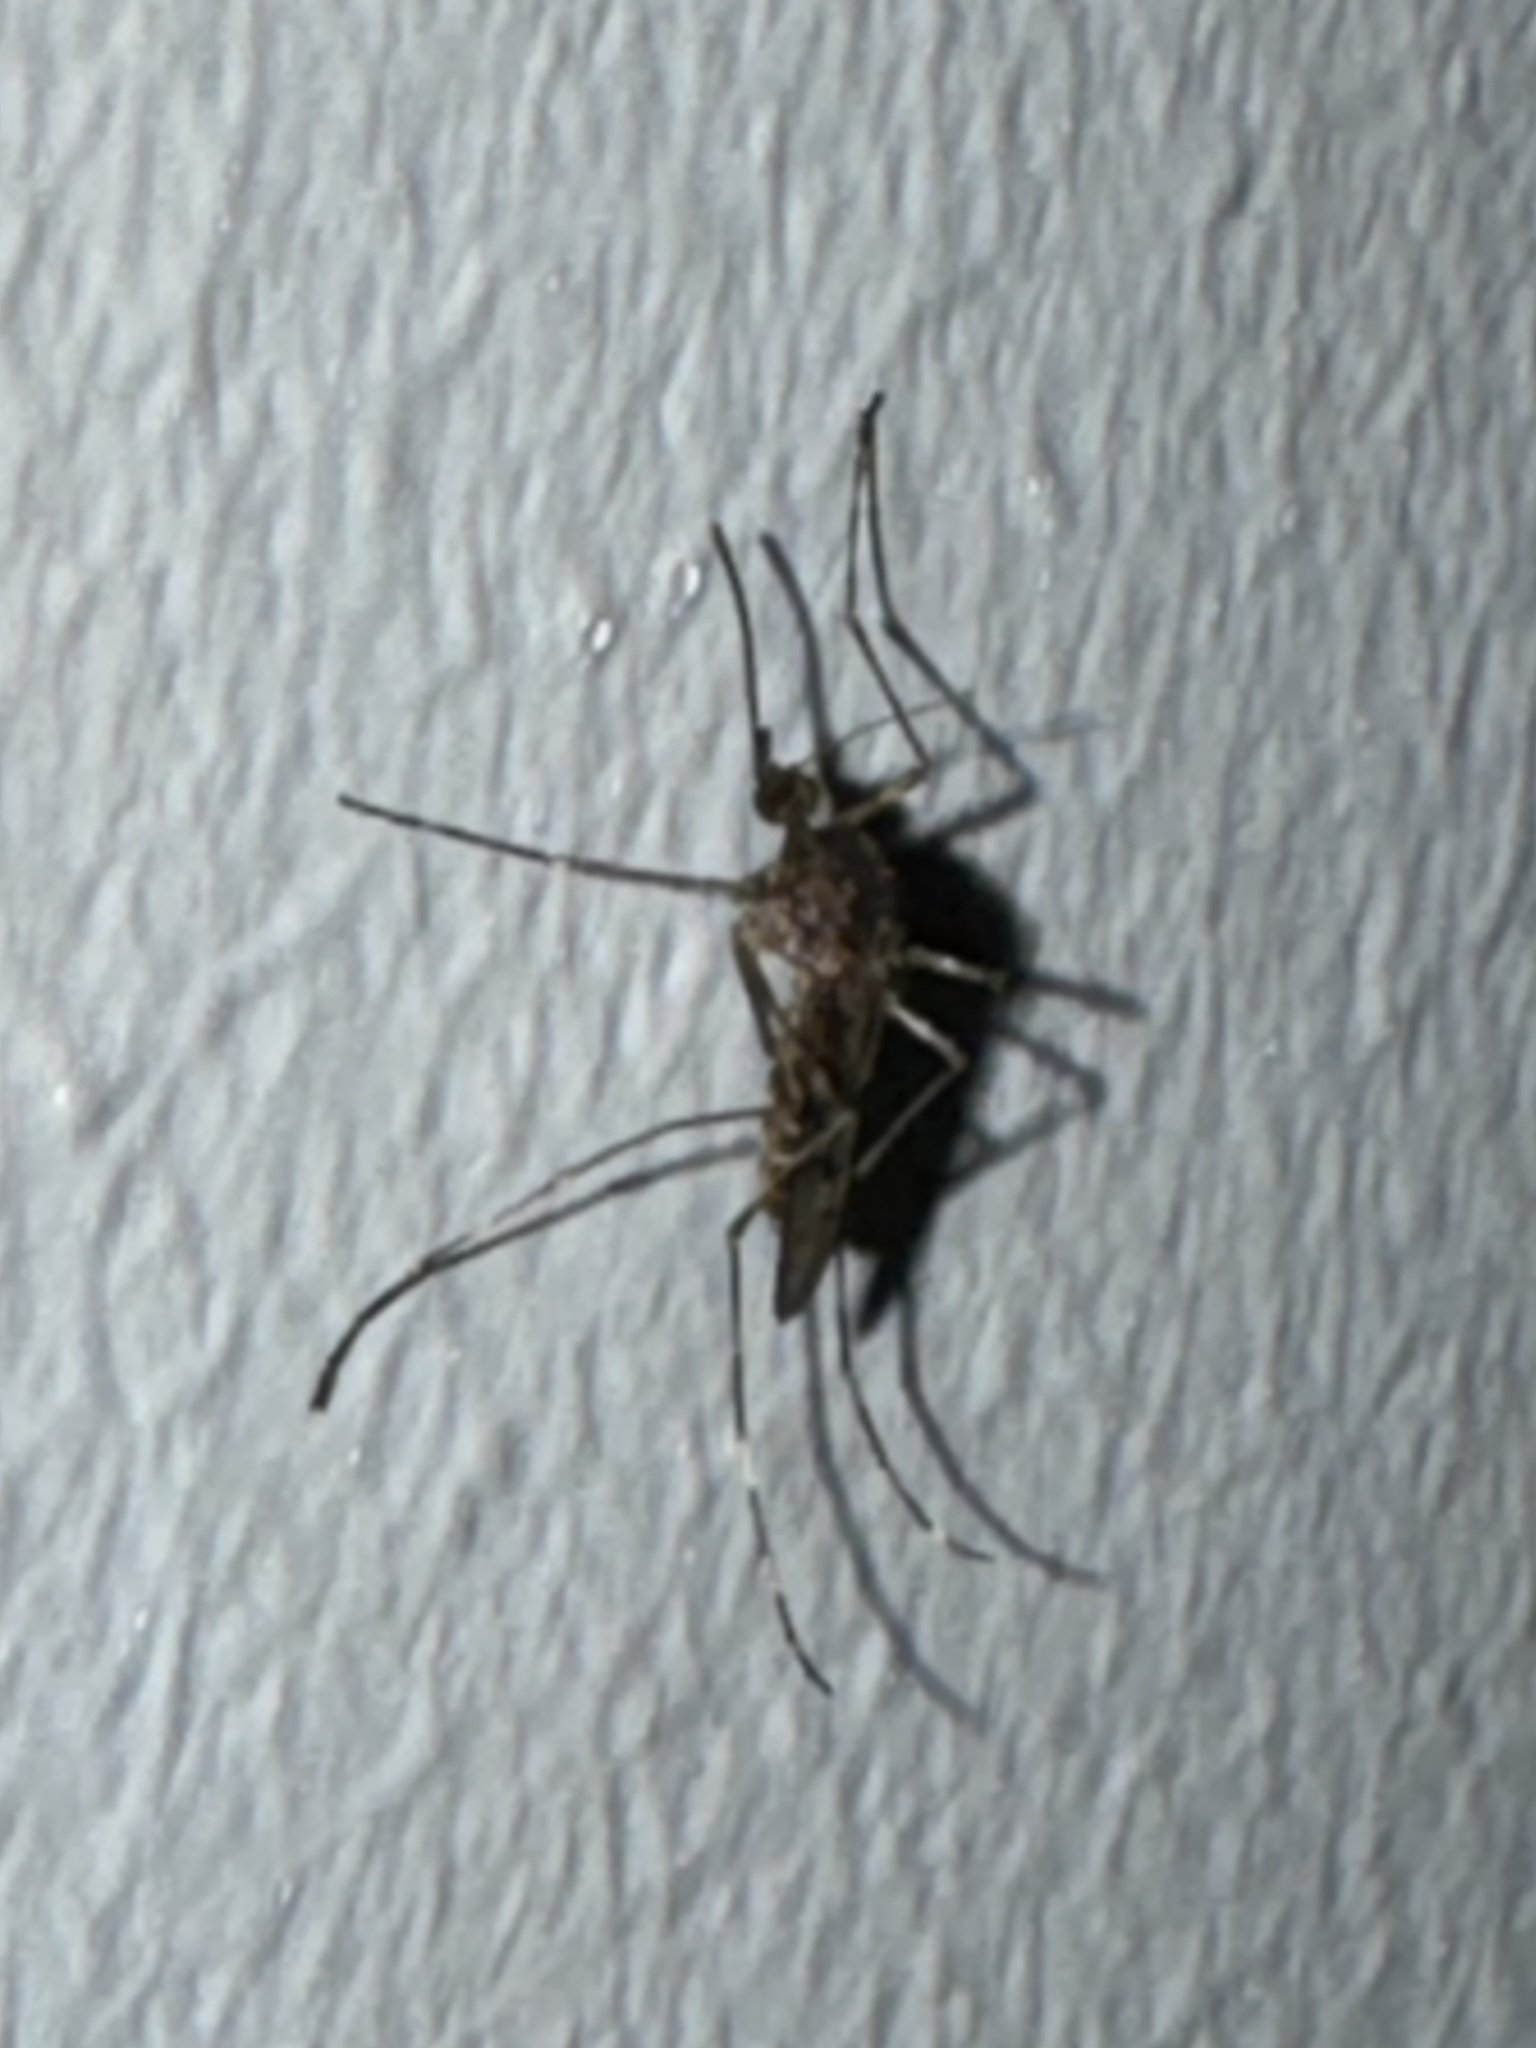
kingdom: Animalia
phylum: Arthropoda
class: Insecta
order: Diptera
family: Culicidae
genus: Culiseta
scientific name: Culiseta annulata
